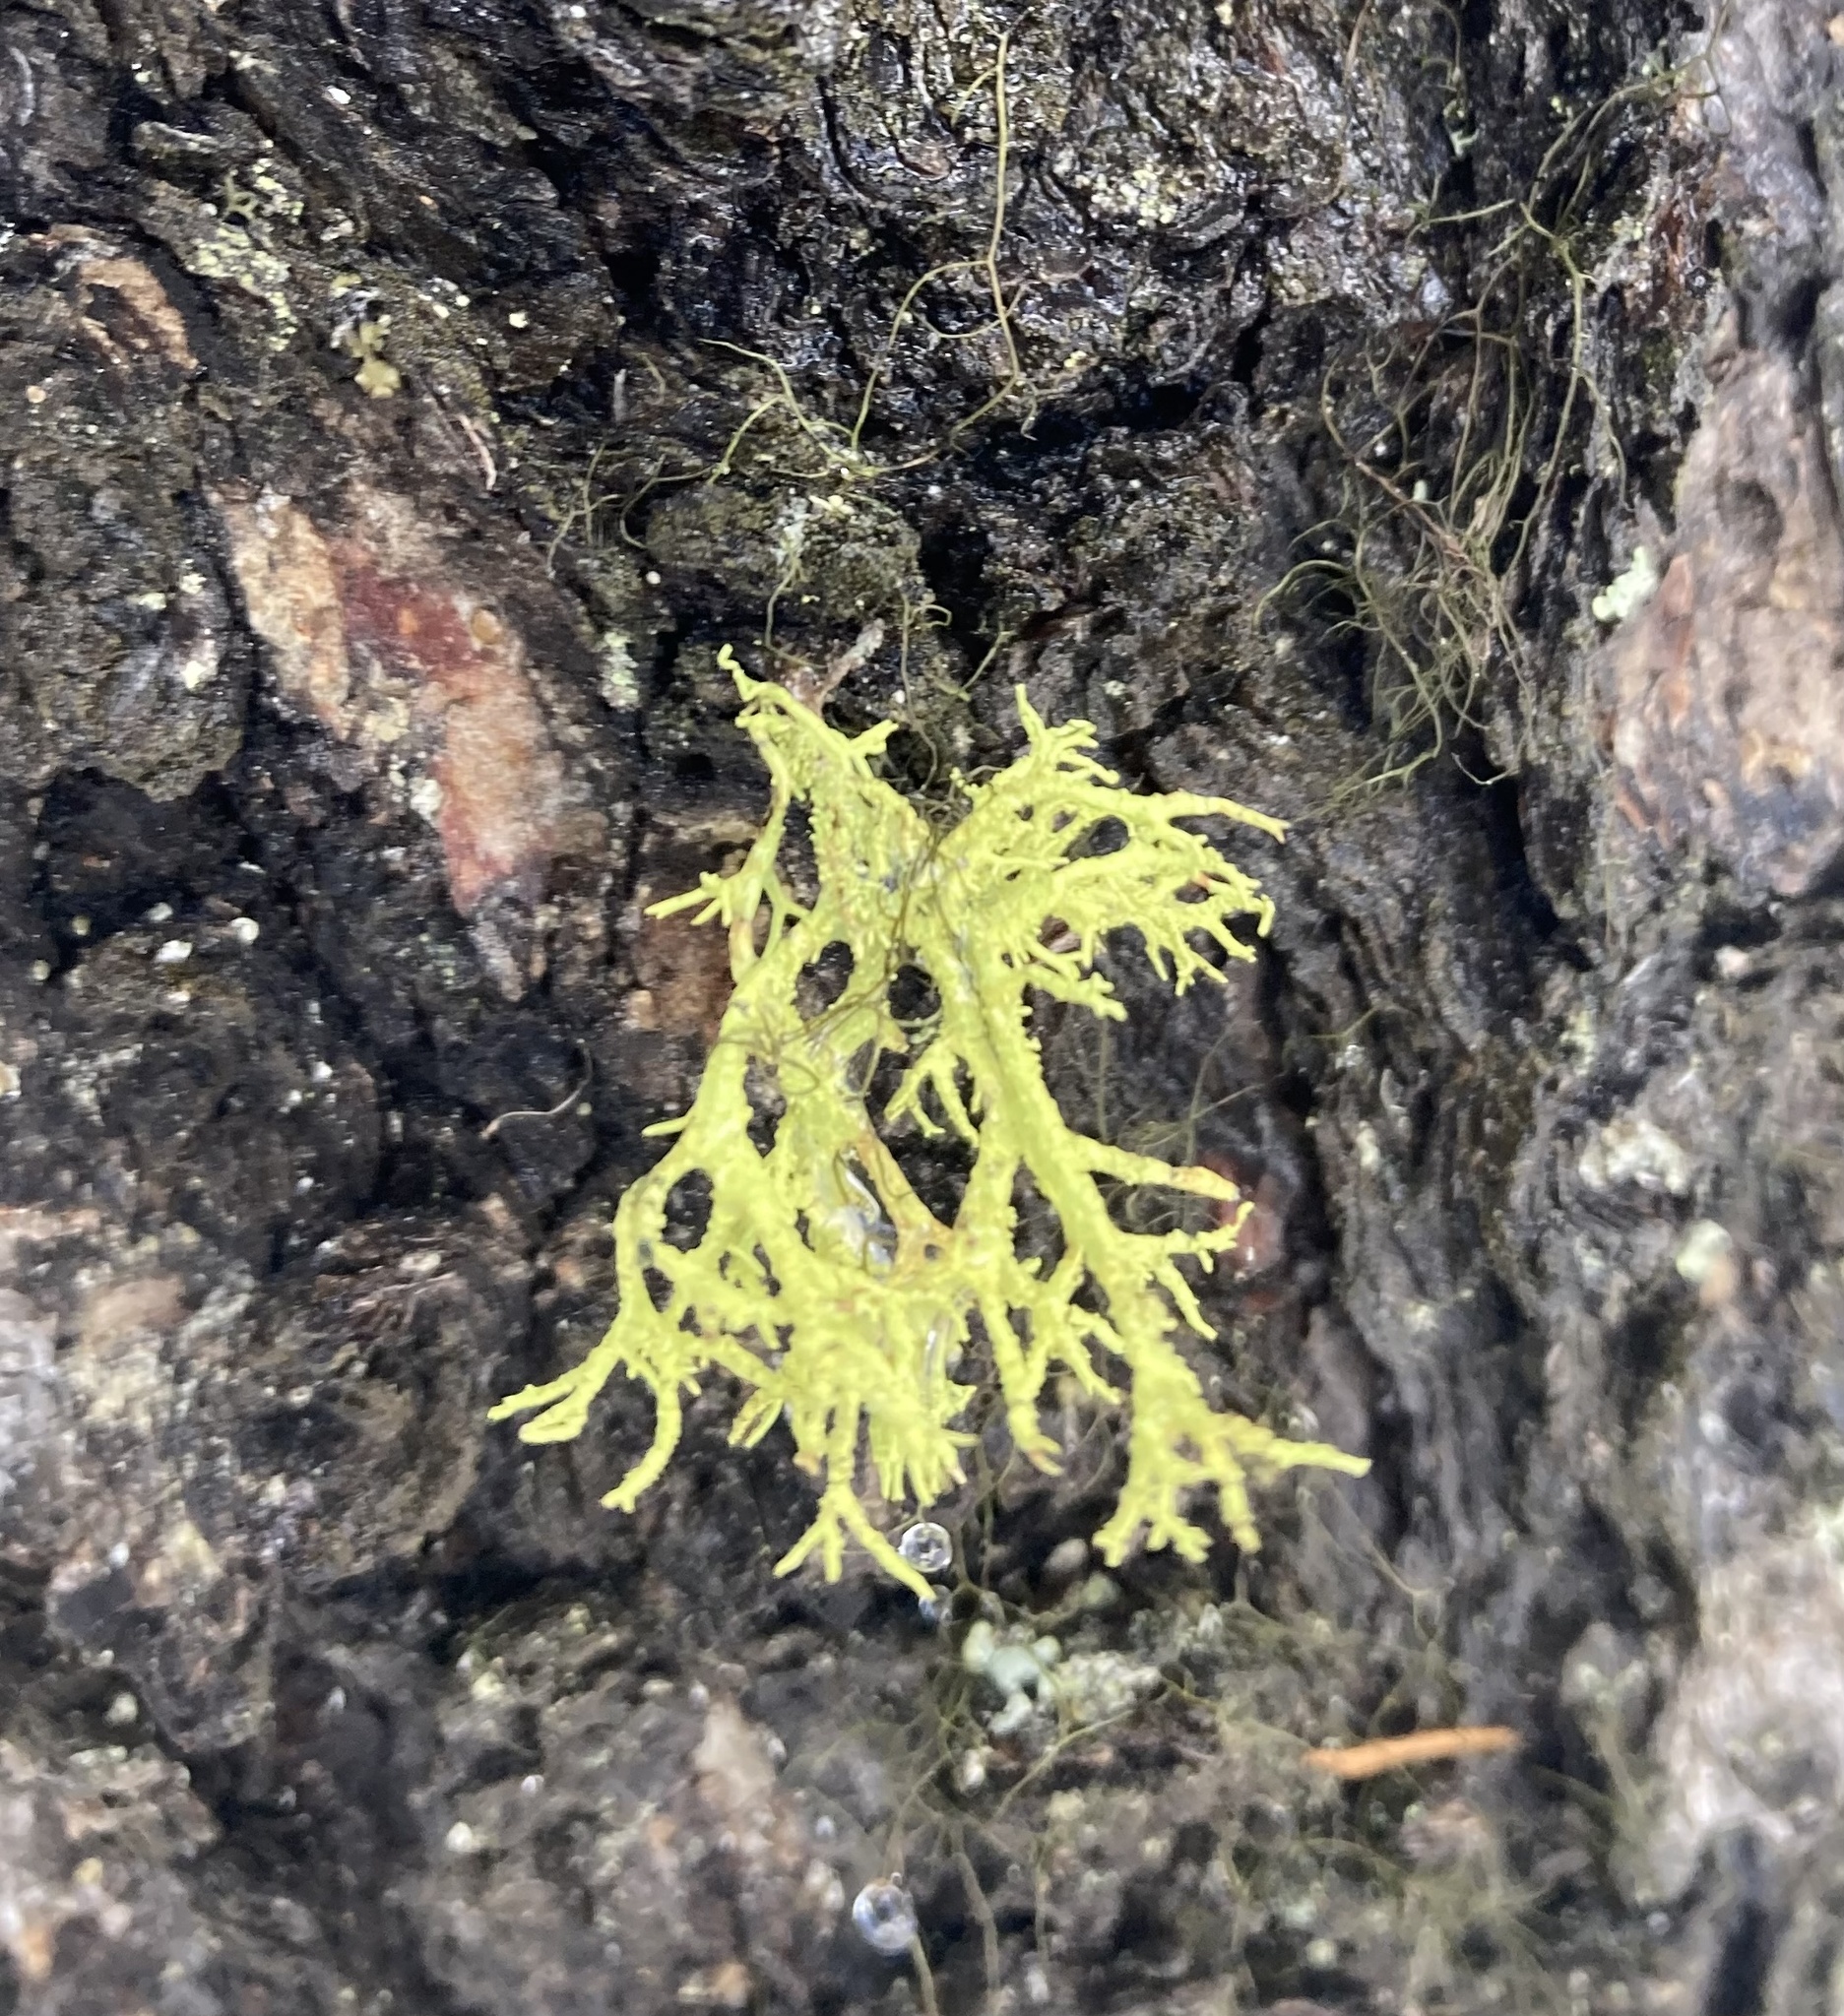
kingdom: Fungi
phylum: Ascomycota
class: Lecanoromycetes
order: Lecanorales
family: Parmeliaceae
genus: Letharia
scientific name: Letharia vulpina
